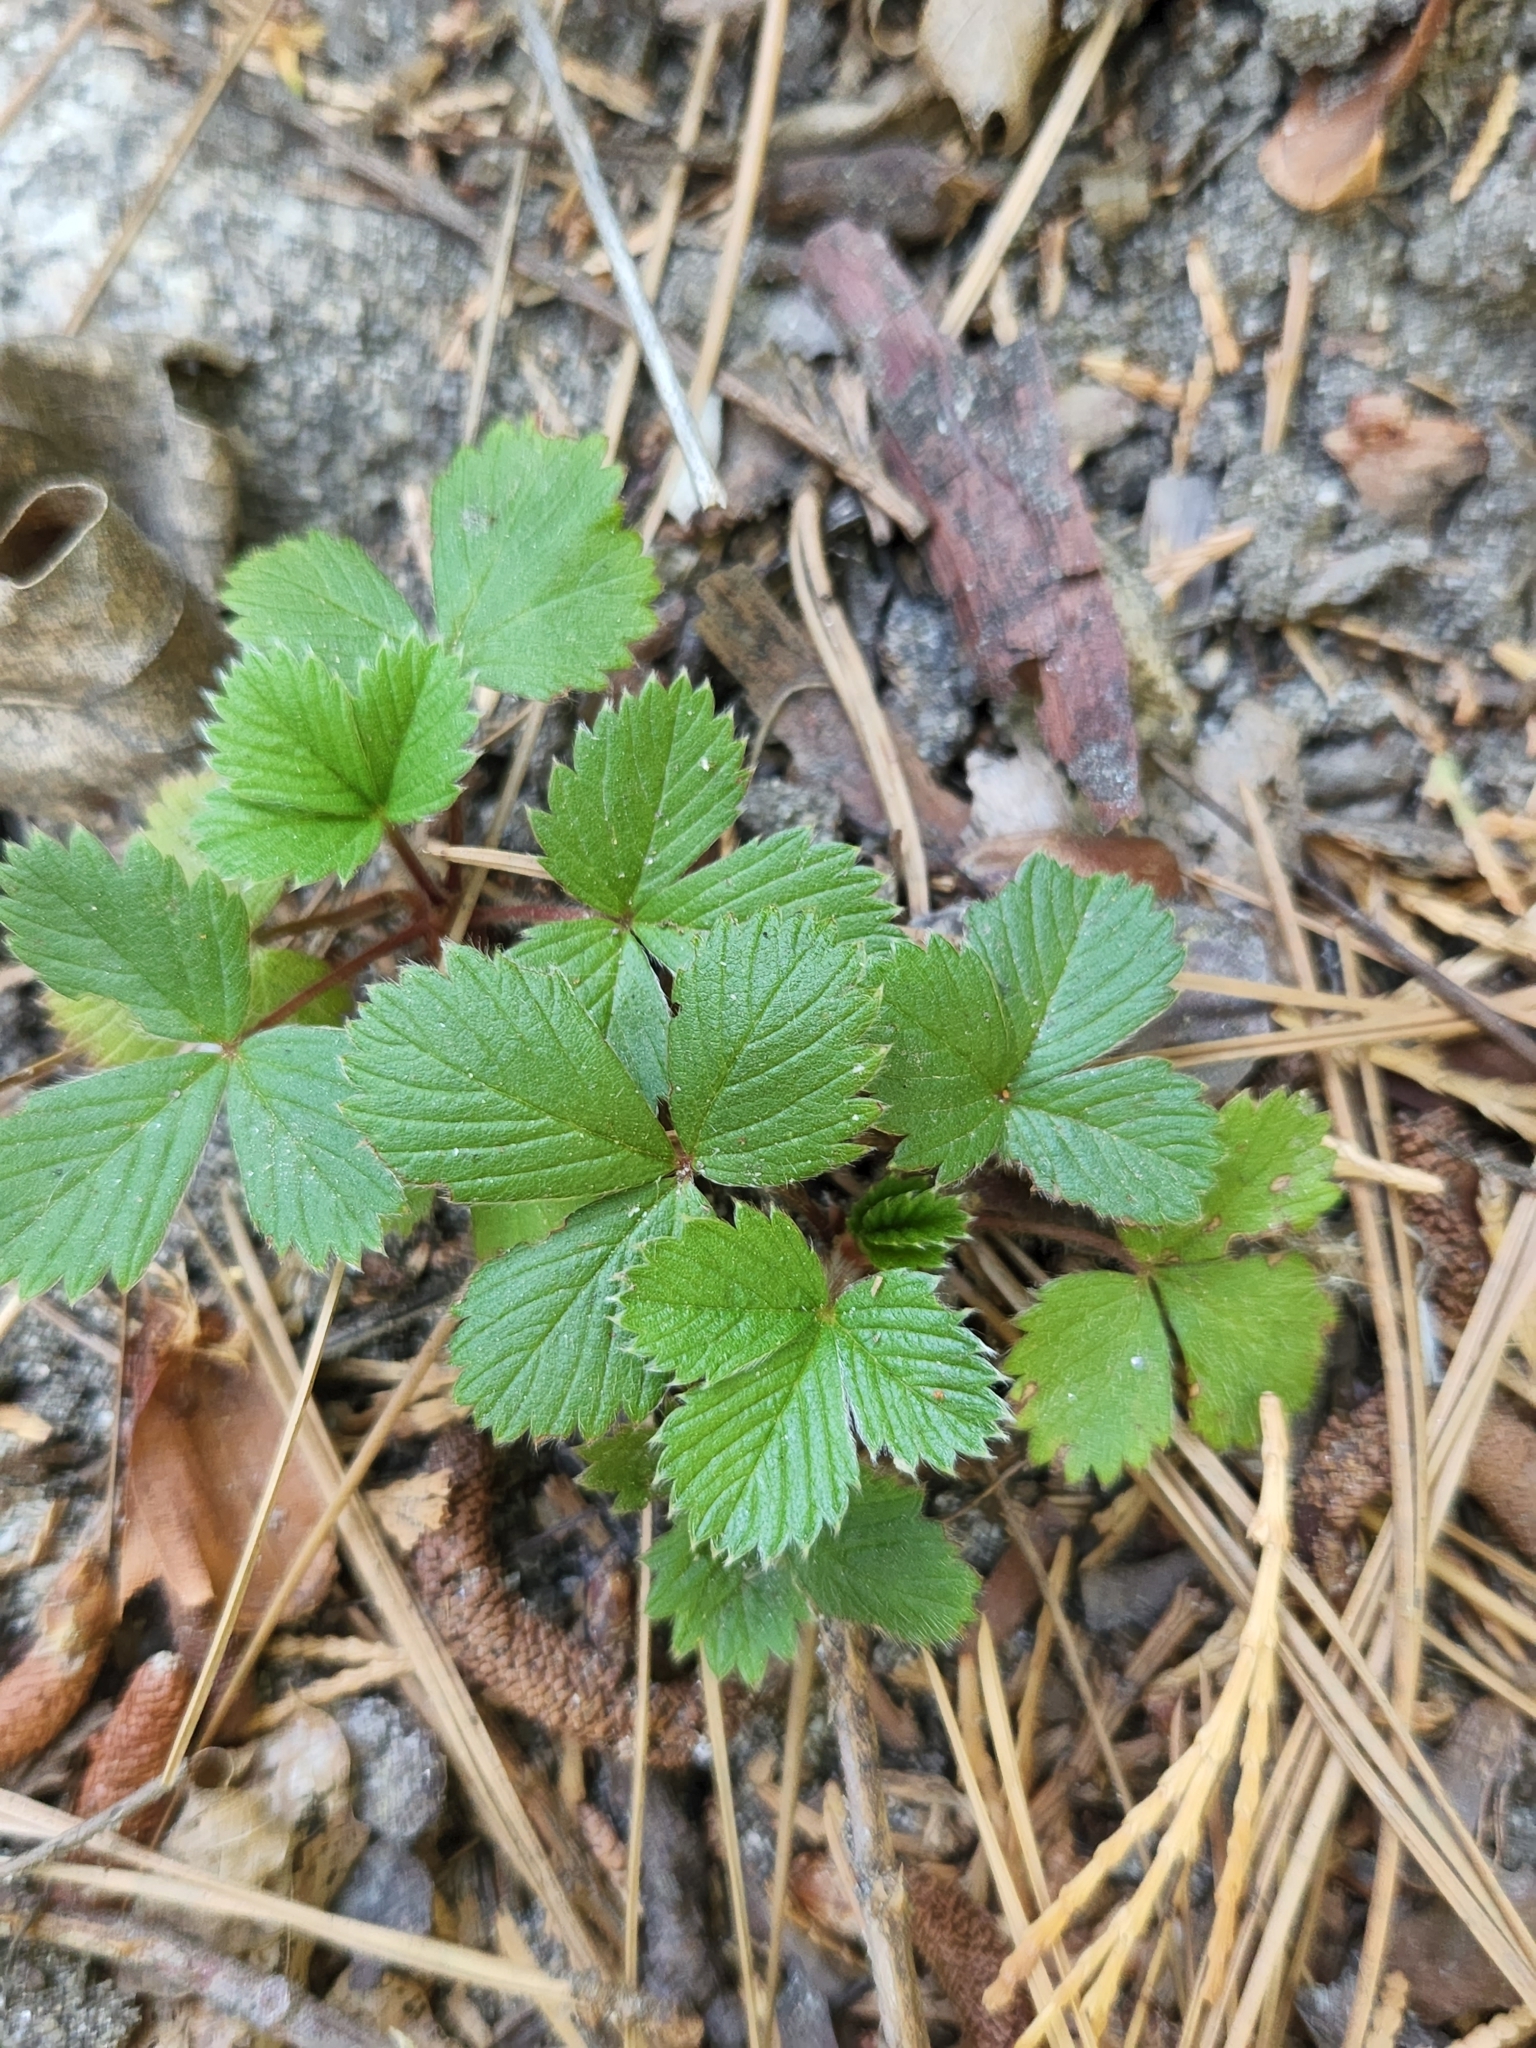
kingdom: Plantae
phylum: Tracheophyta
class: Magnoliopsida
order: Rosales
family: Rosaceae
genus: Fragaria
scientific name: Fragaria vesca
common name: Wild strawberry
